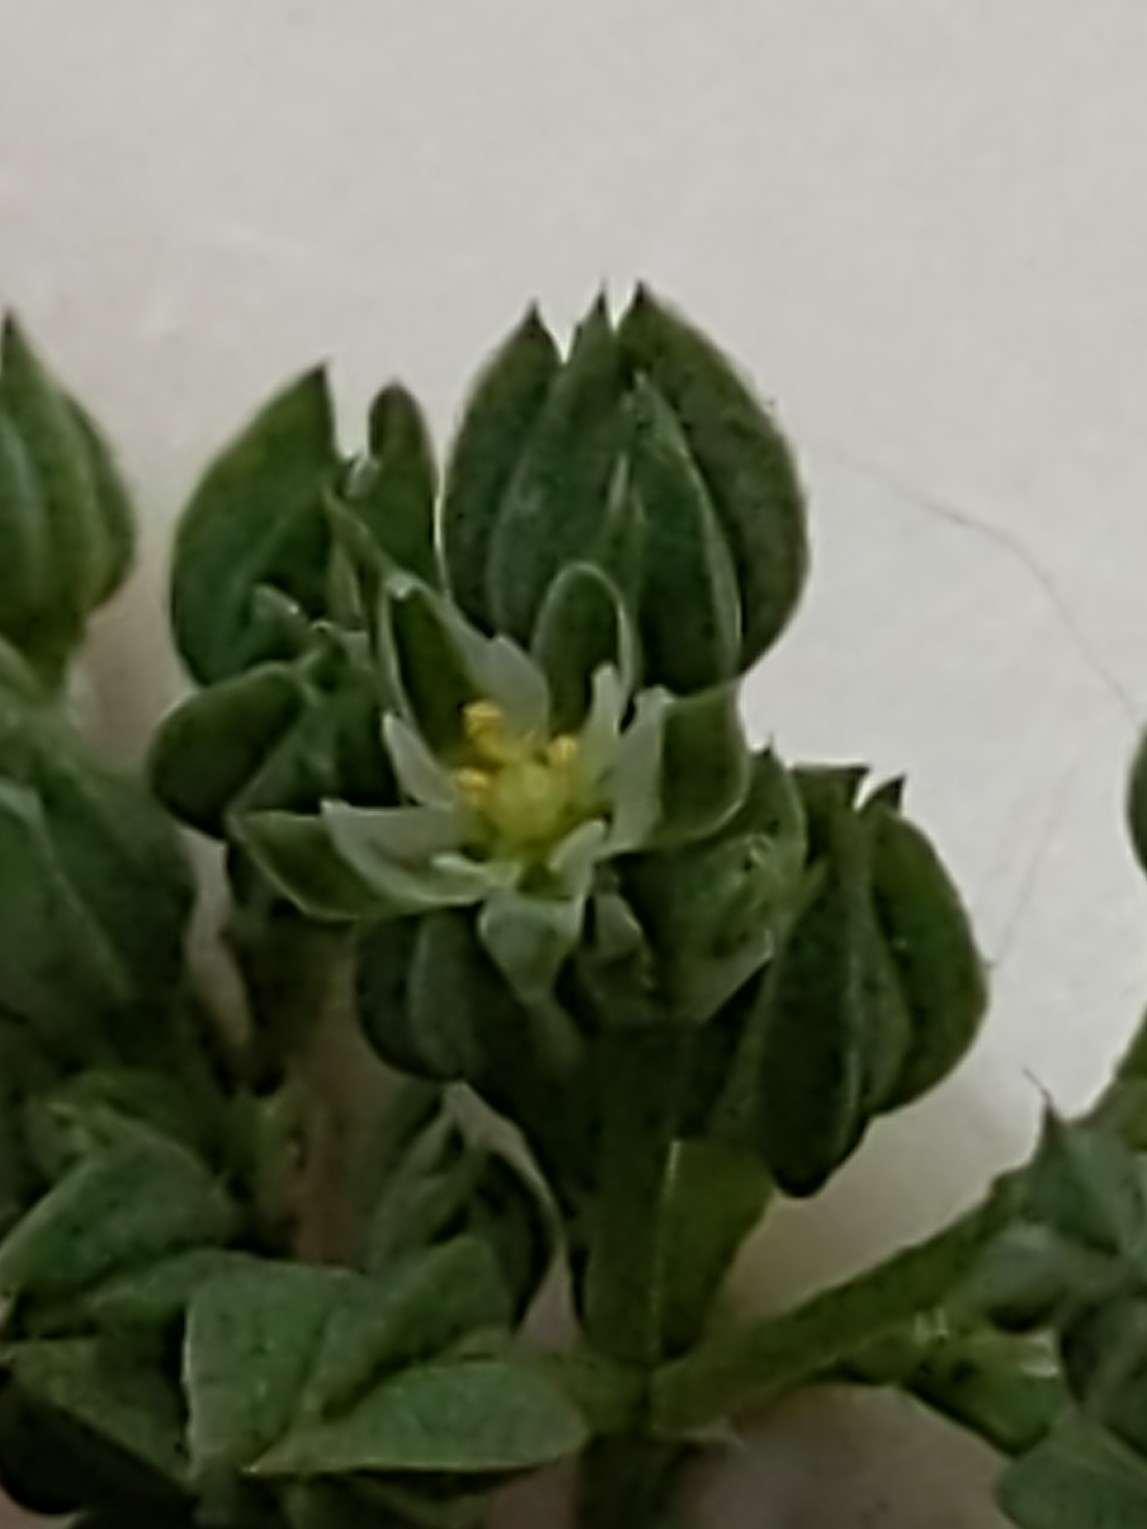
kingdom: Plantae
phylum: Tracheophyta
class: Magnoliopsida
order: Caryophyllales
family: Caryophyllaceae
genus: Polycarpon
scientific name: Polycarpon tetraphyllum
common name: Four-leaved all-seed
